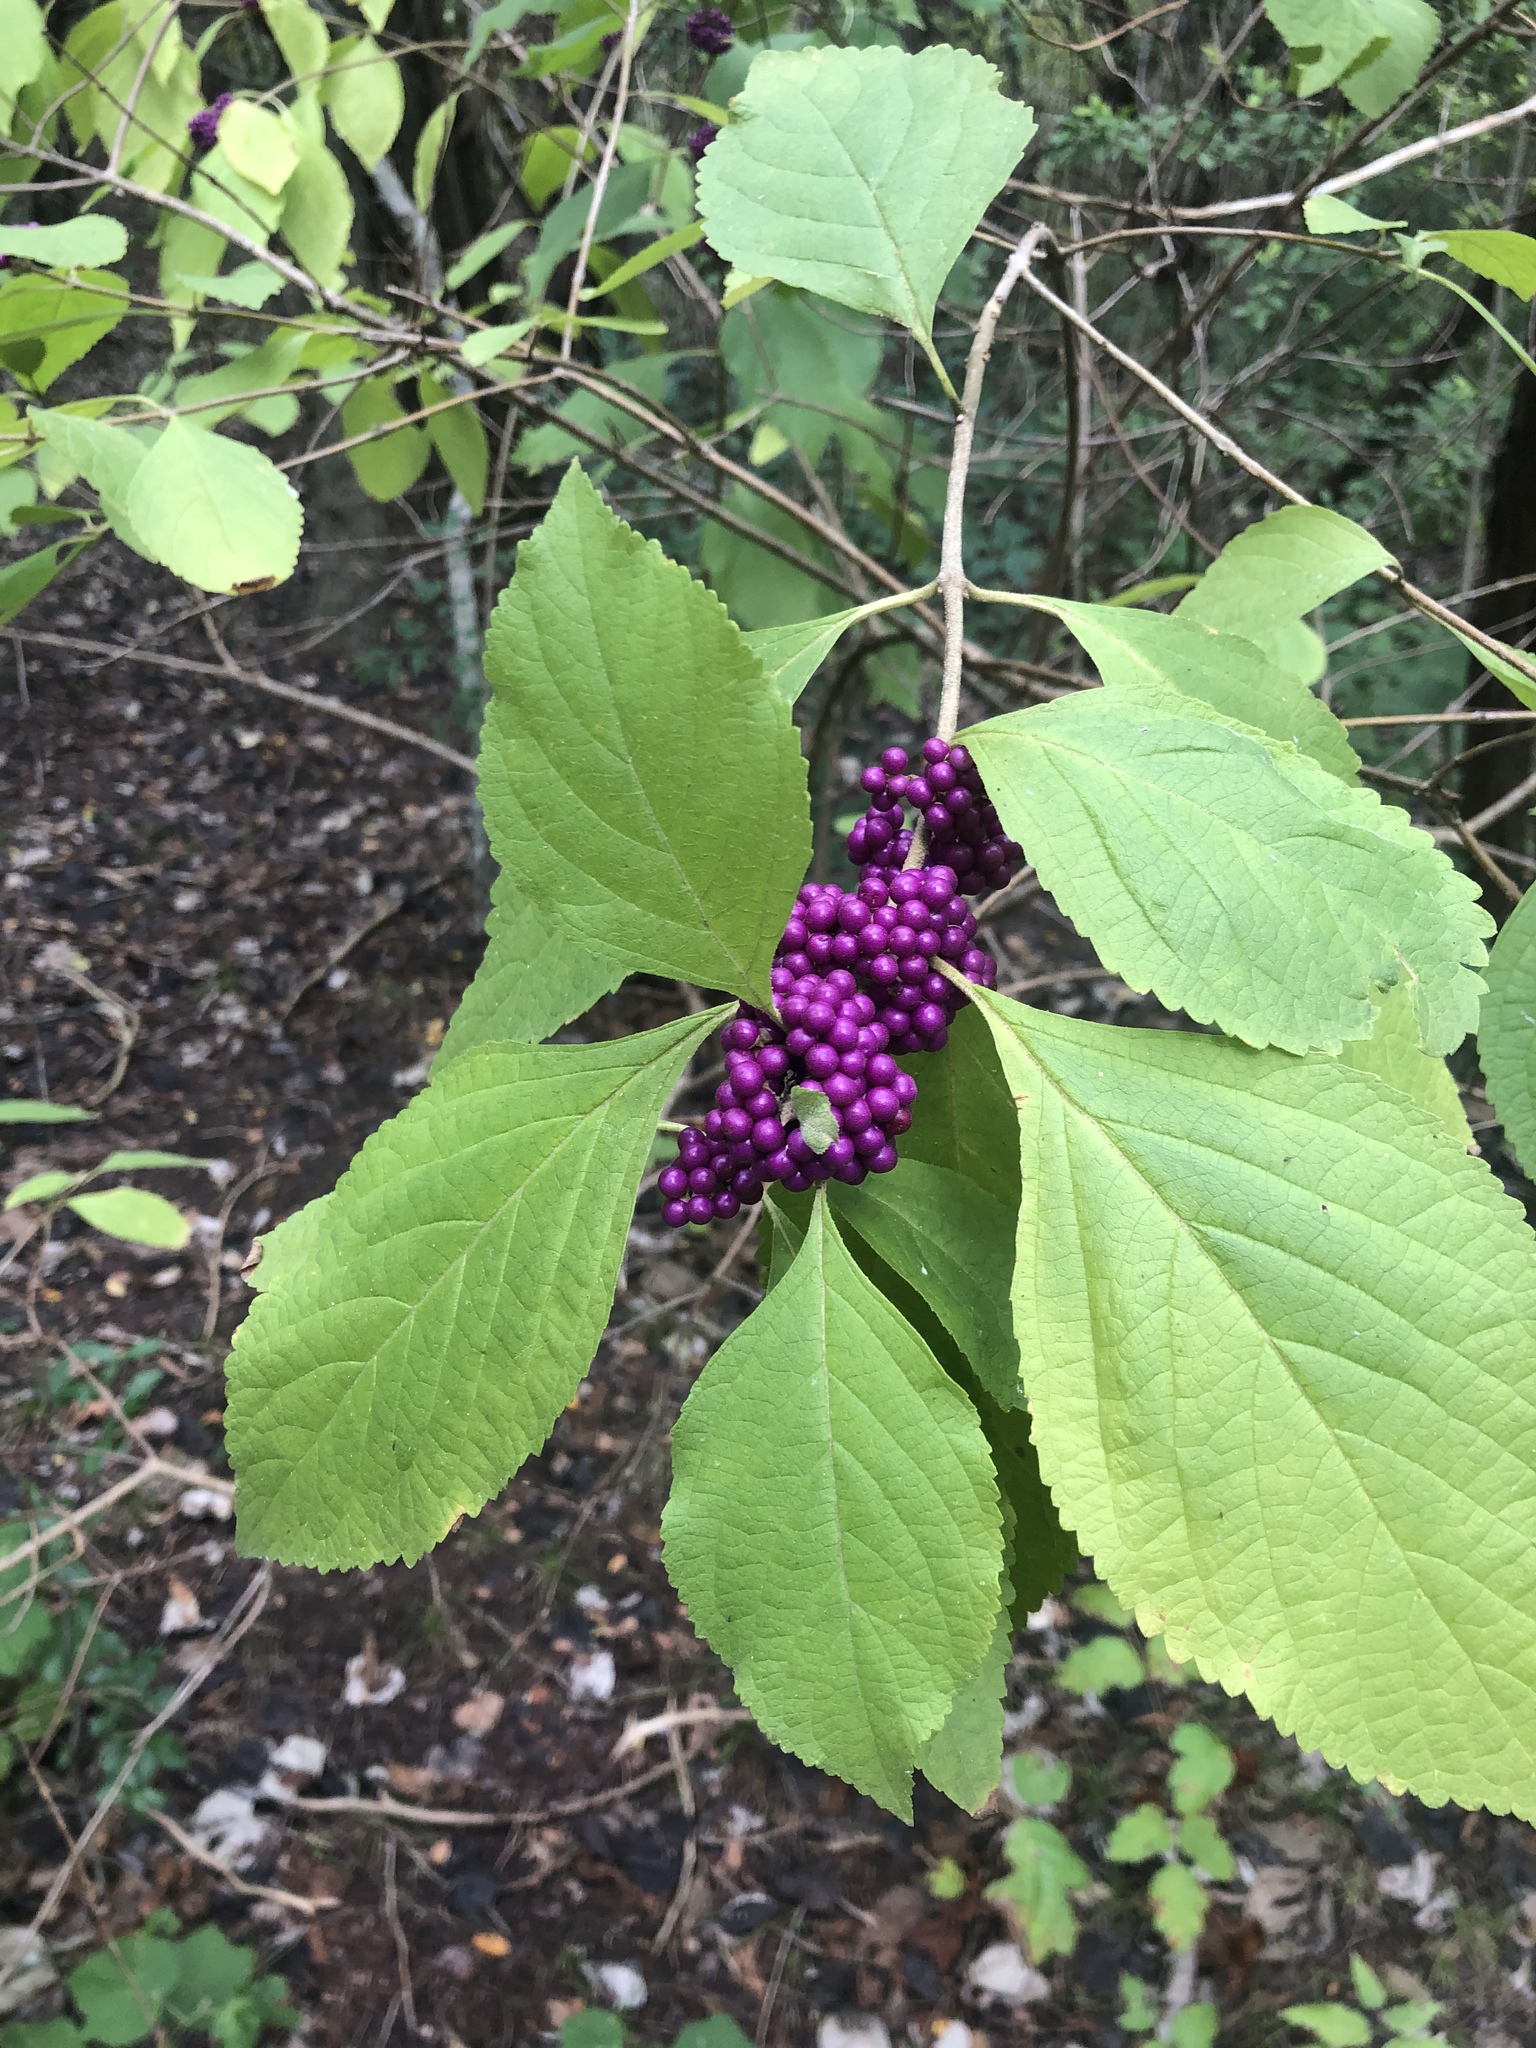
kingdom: Plantae
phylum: Tracheophyta
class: Magnoliopsida
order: Lamiales
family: Lamiaceae
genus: Callicarpa
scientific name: Callicarpa americana
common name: American beautyberry
